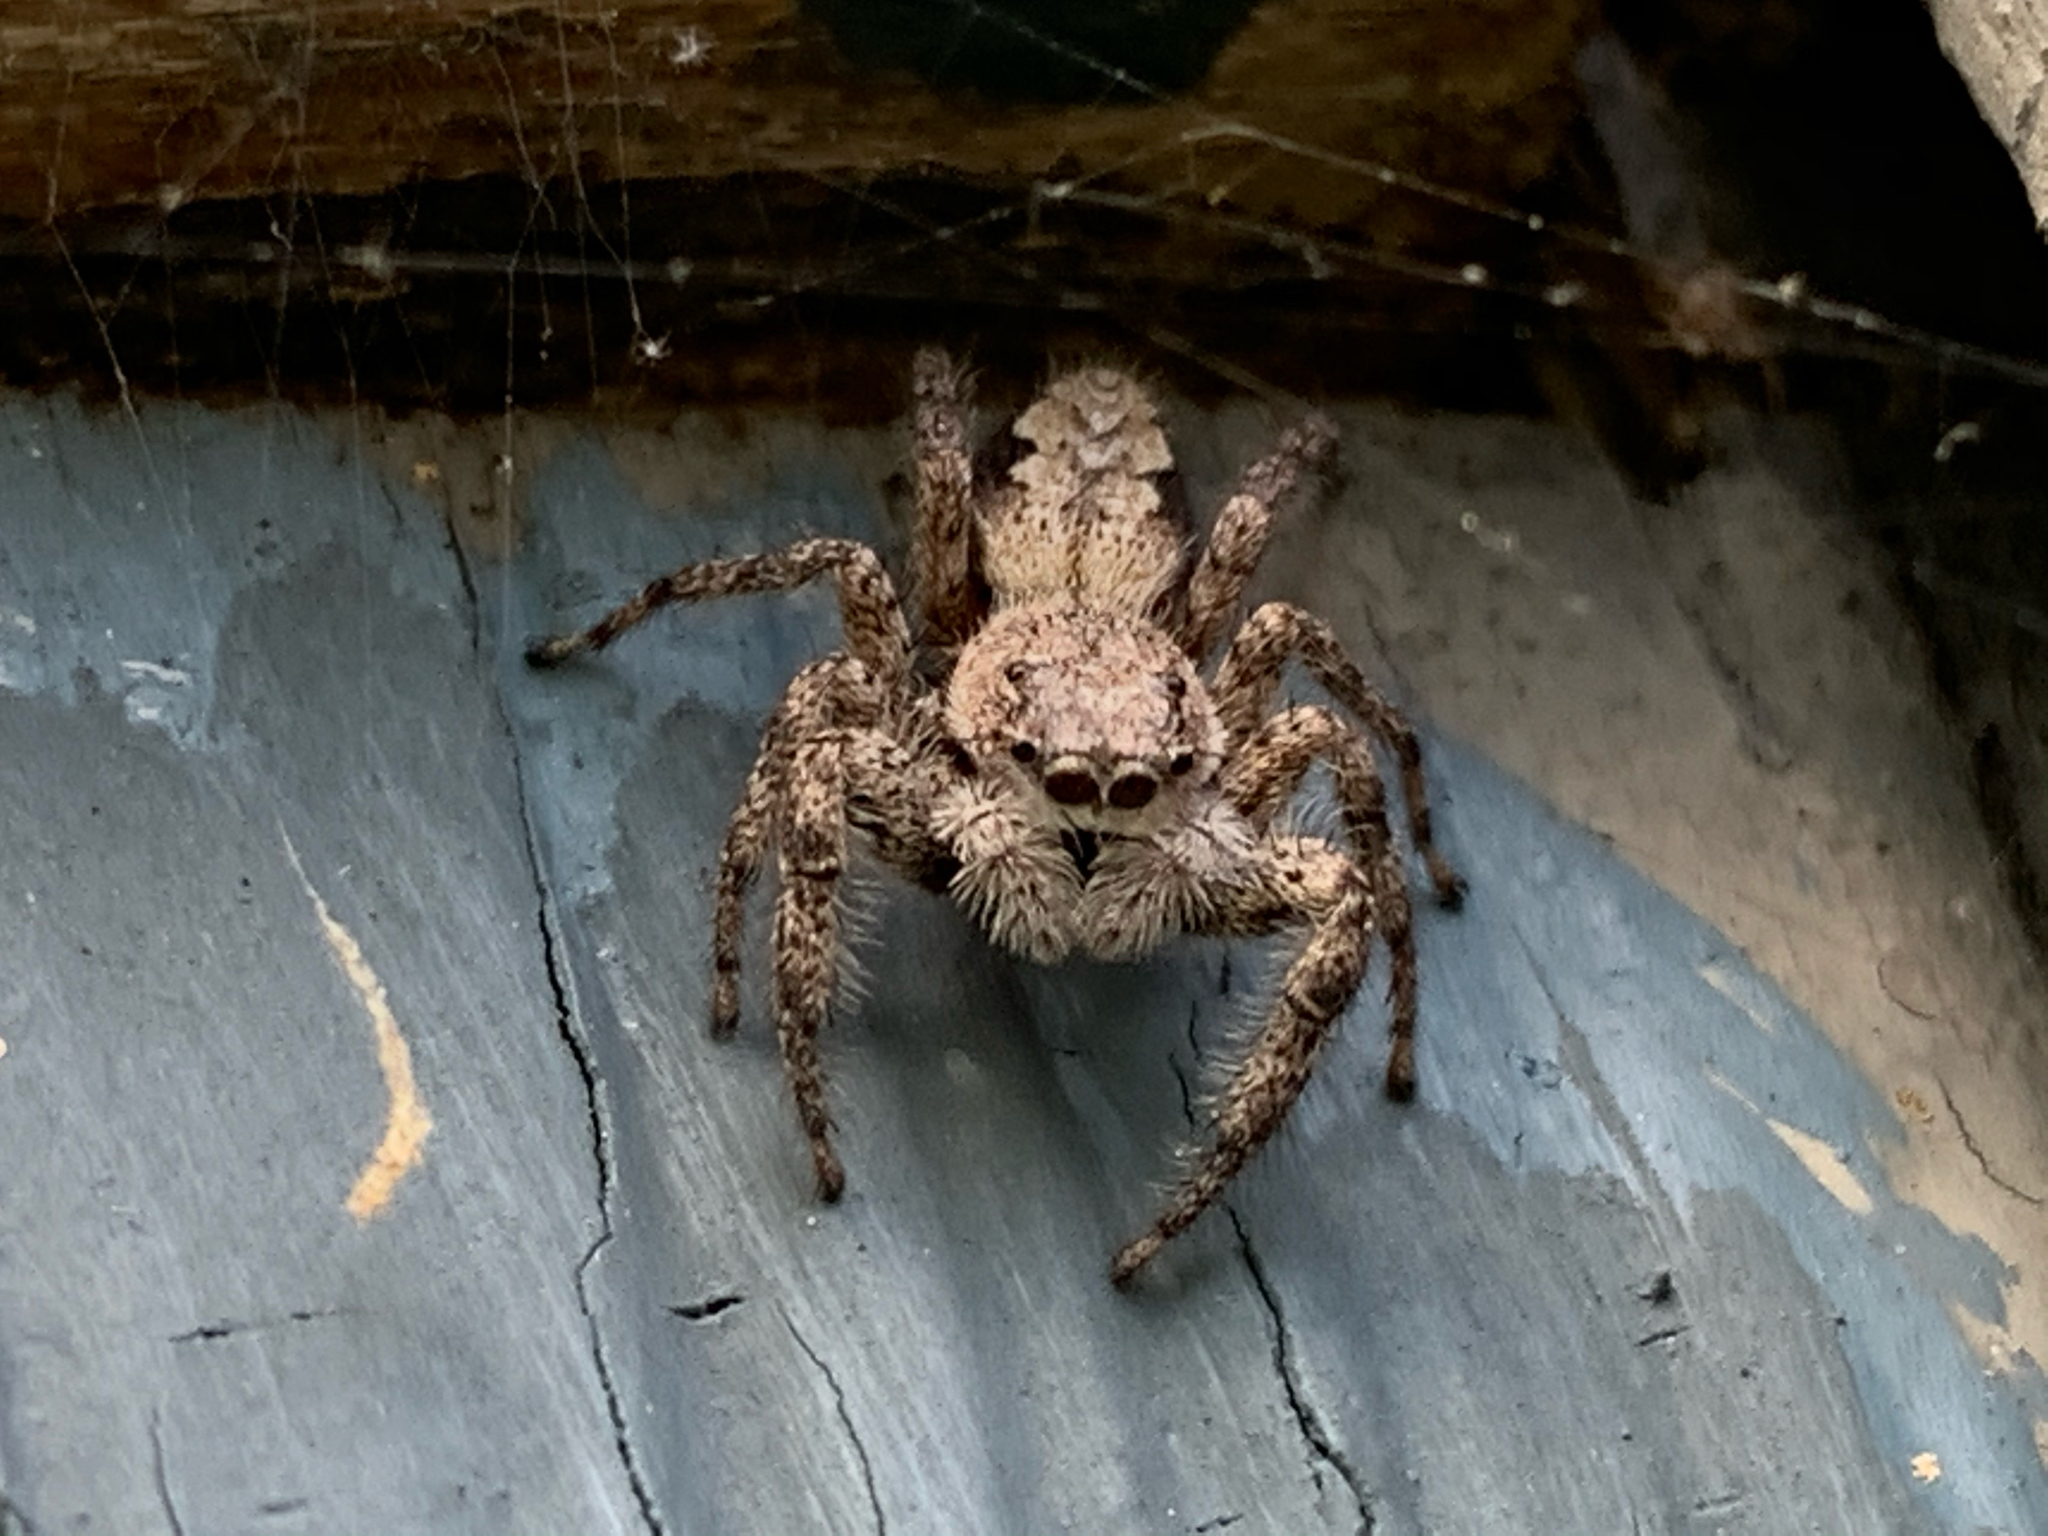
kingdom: Animalia
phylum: Arthropoda
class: Arachnida
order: Araneae
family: Salticidae
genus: Platycryptus
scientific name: Platycryptus undatus
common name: Tan jumping spider
